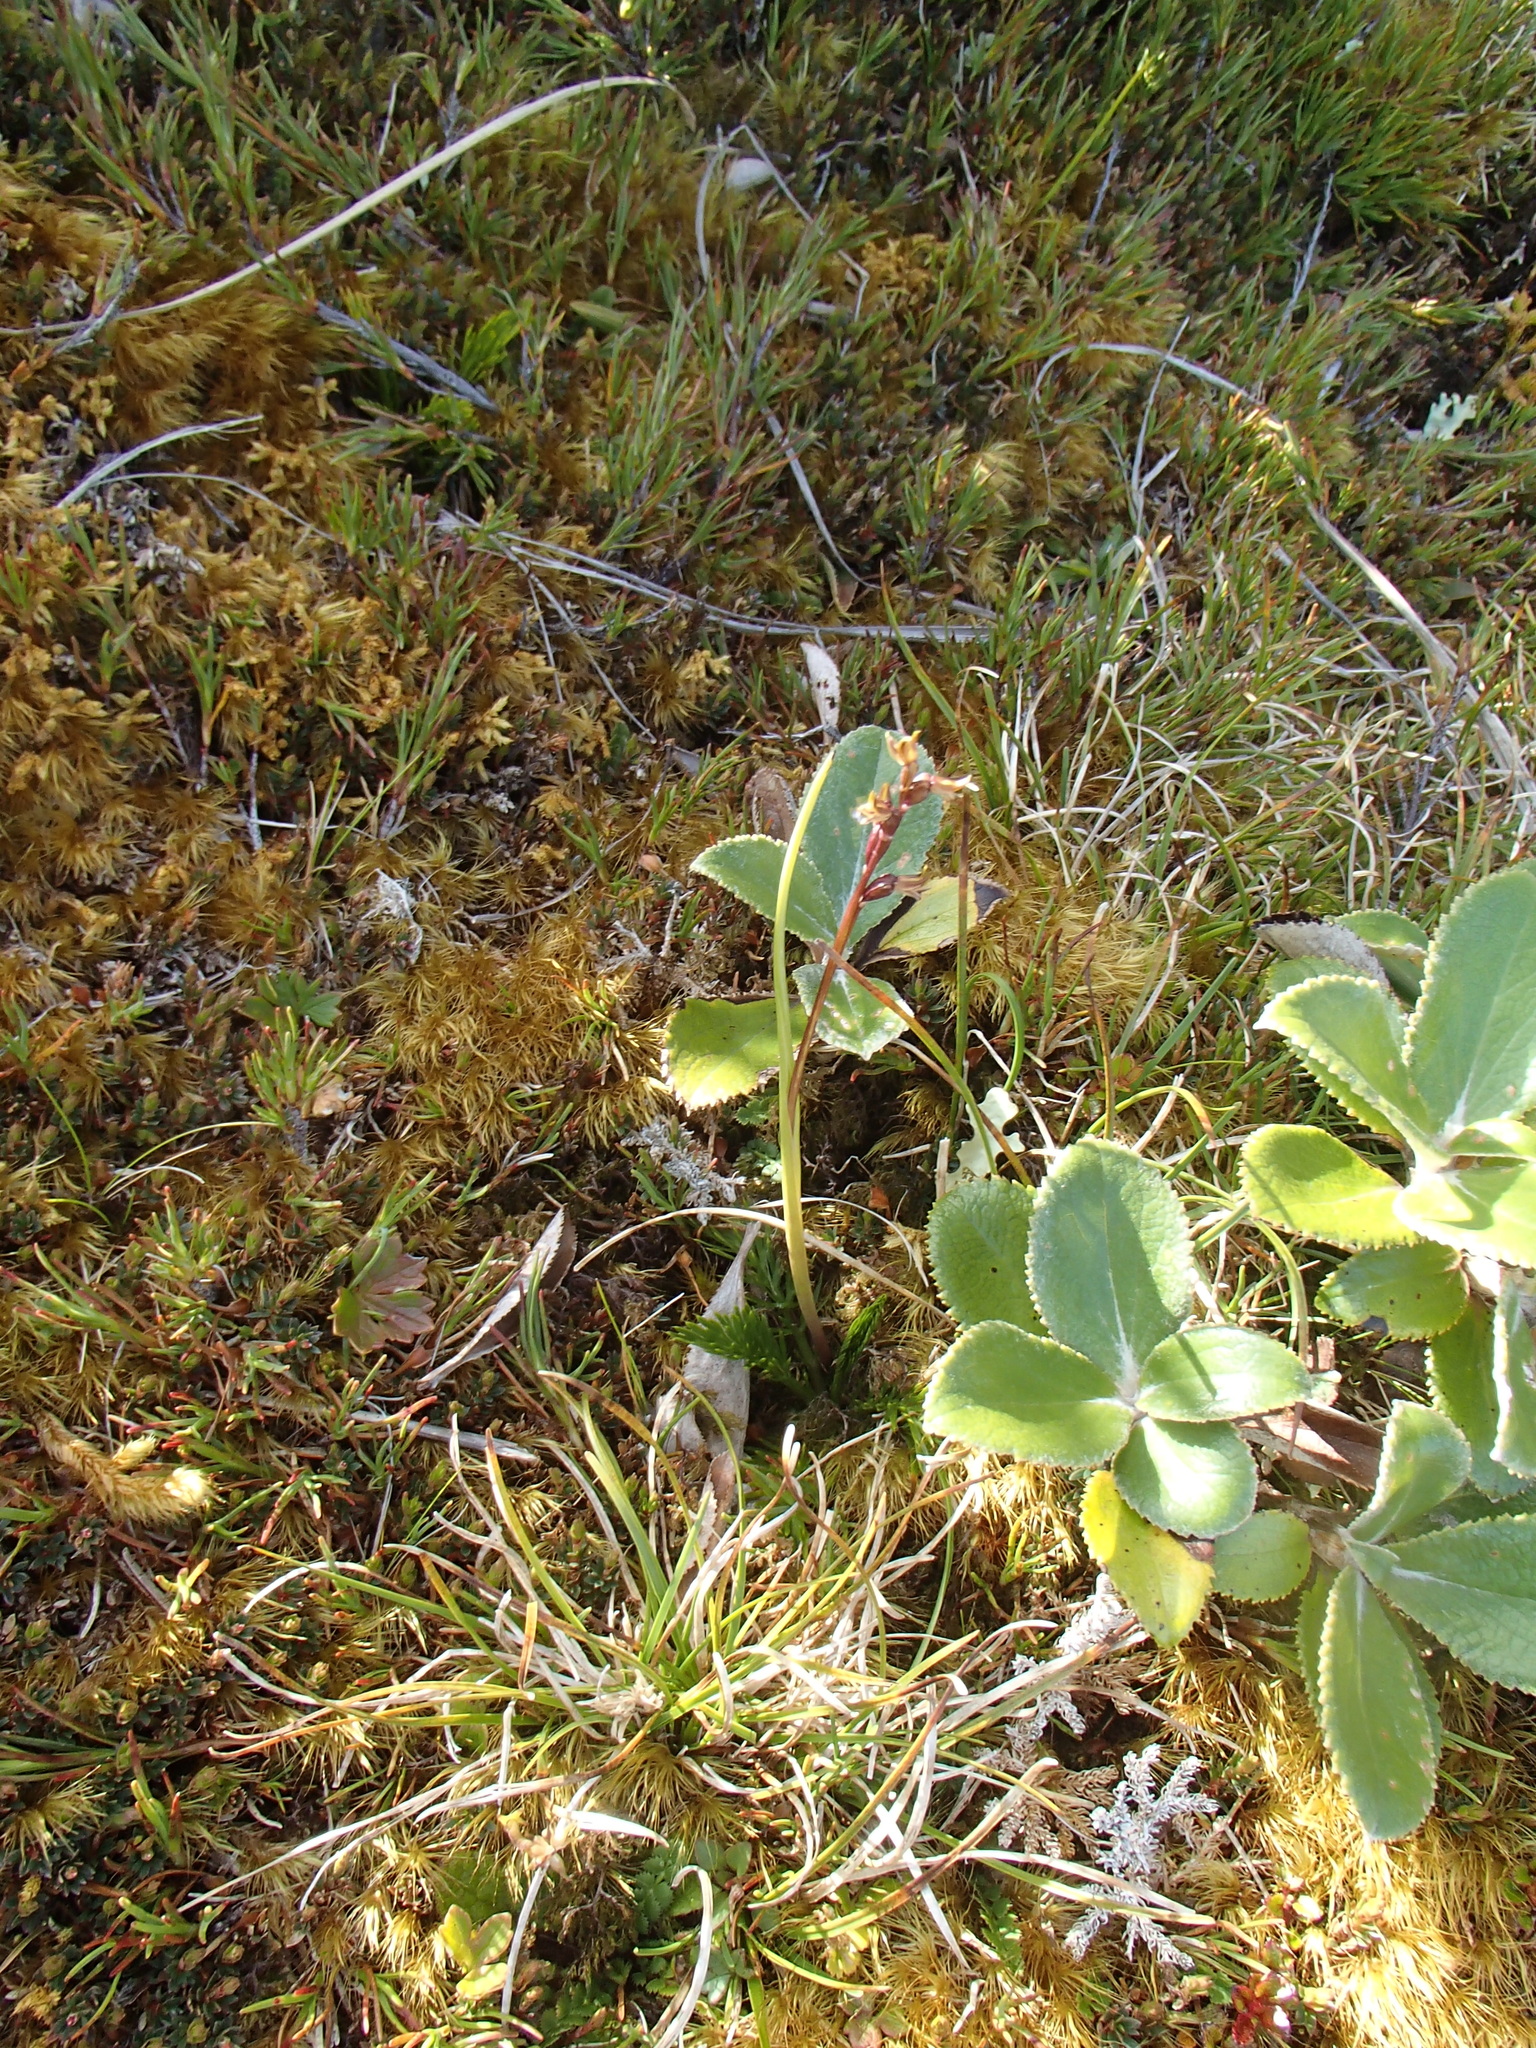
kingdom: Plantae
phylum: Tracheophyta
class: Liliopsida
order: Asparagales
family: Orchidaceae
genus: Prasophyllum
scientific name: Prasophyllum colensoi
